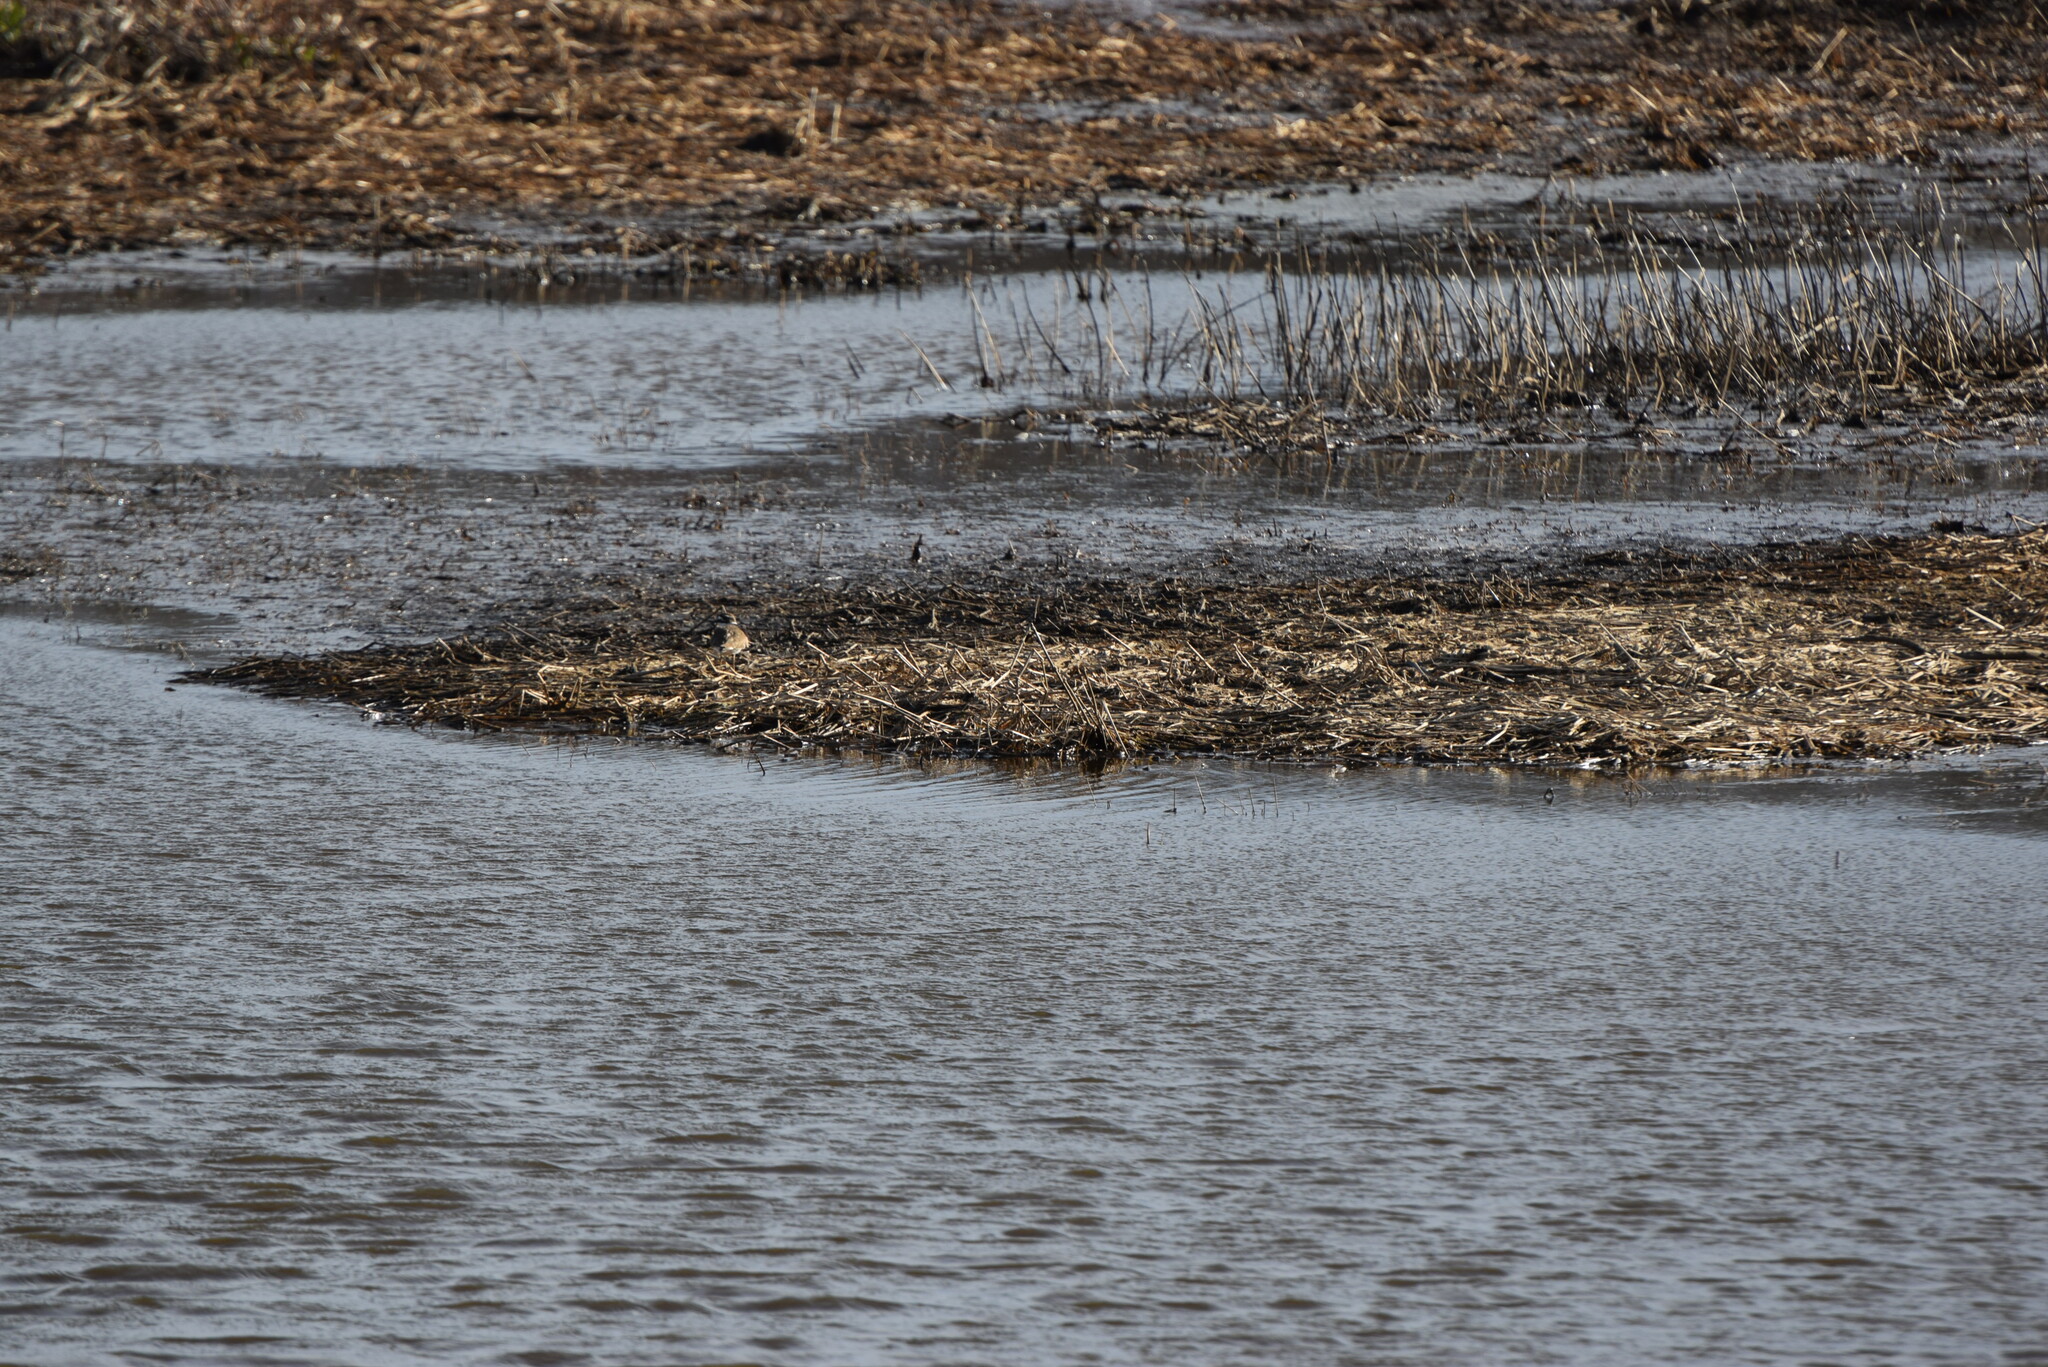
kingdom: Animalia
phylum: Chordata
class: Aves
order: Charadriiformes
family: Charadriidae
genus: Charadrius
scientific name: Charadrius vociferus
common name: Killdeer
